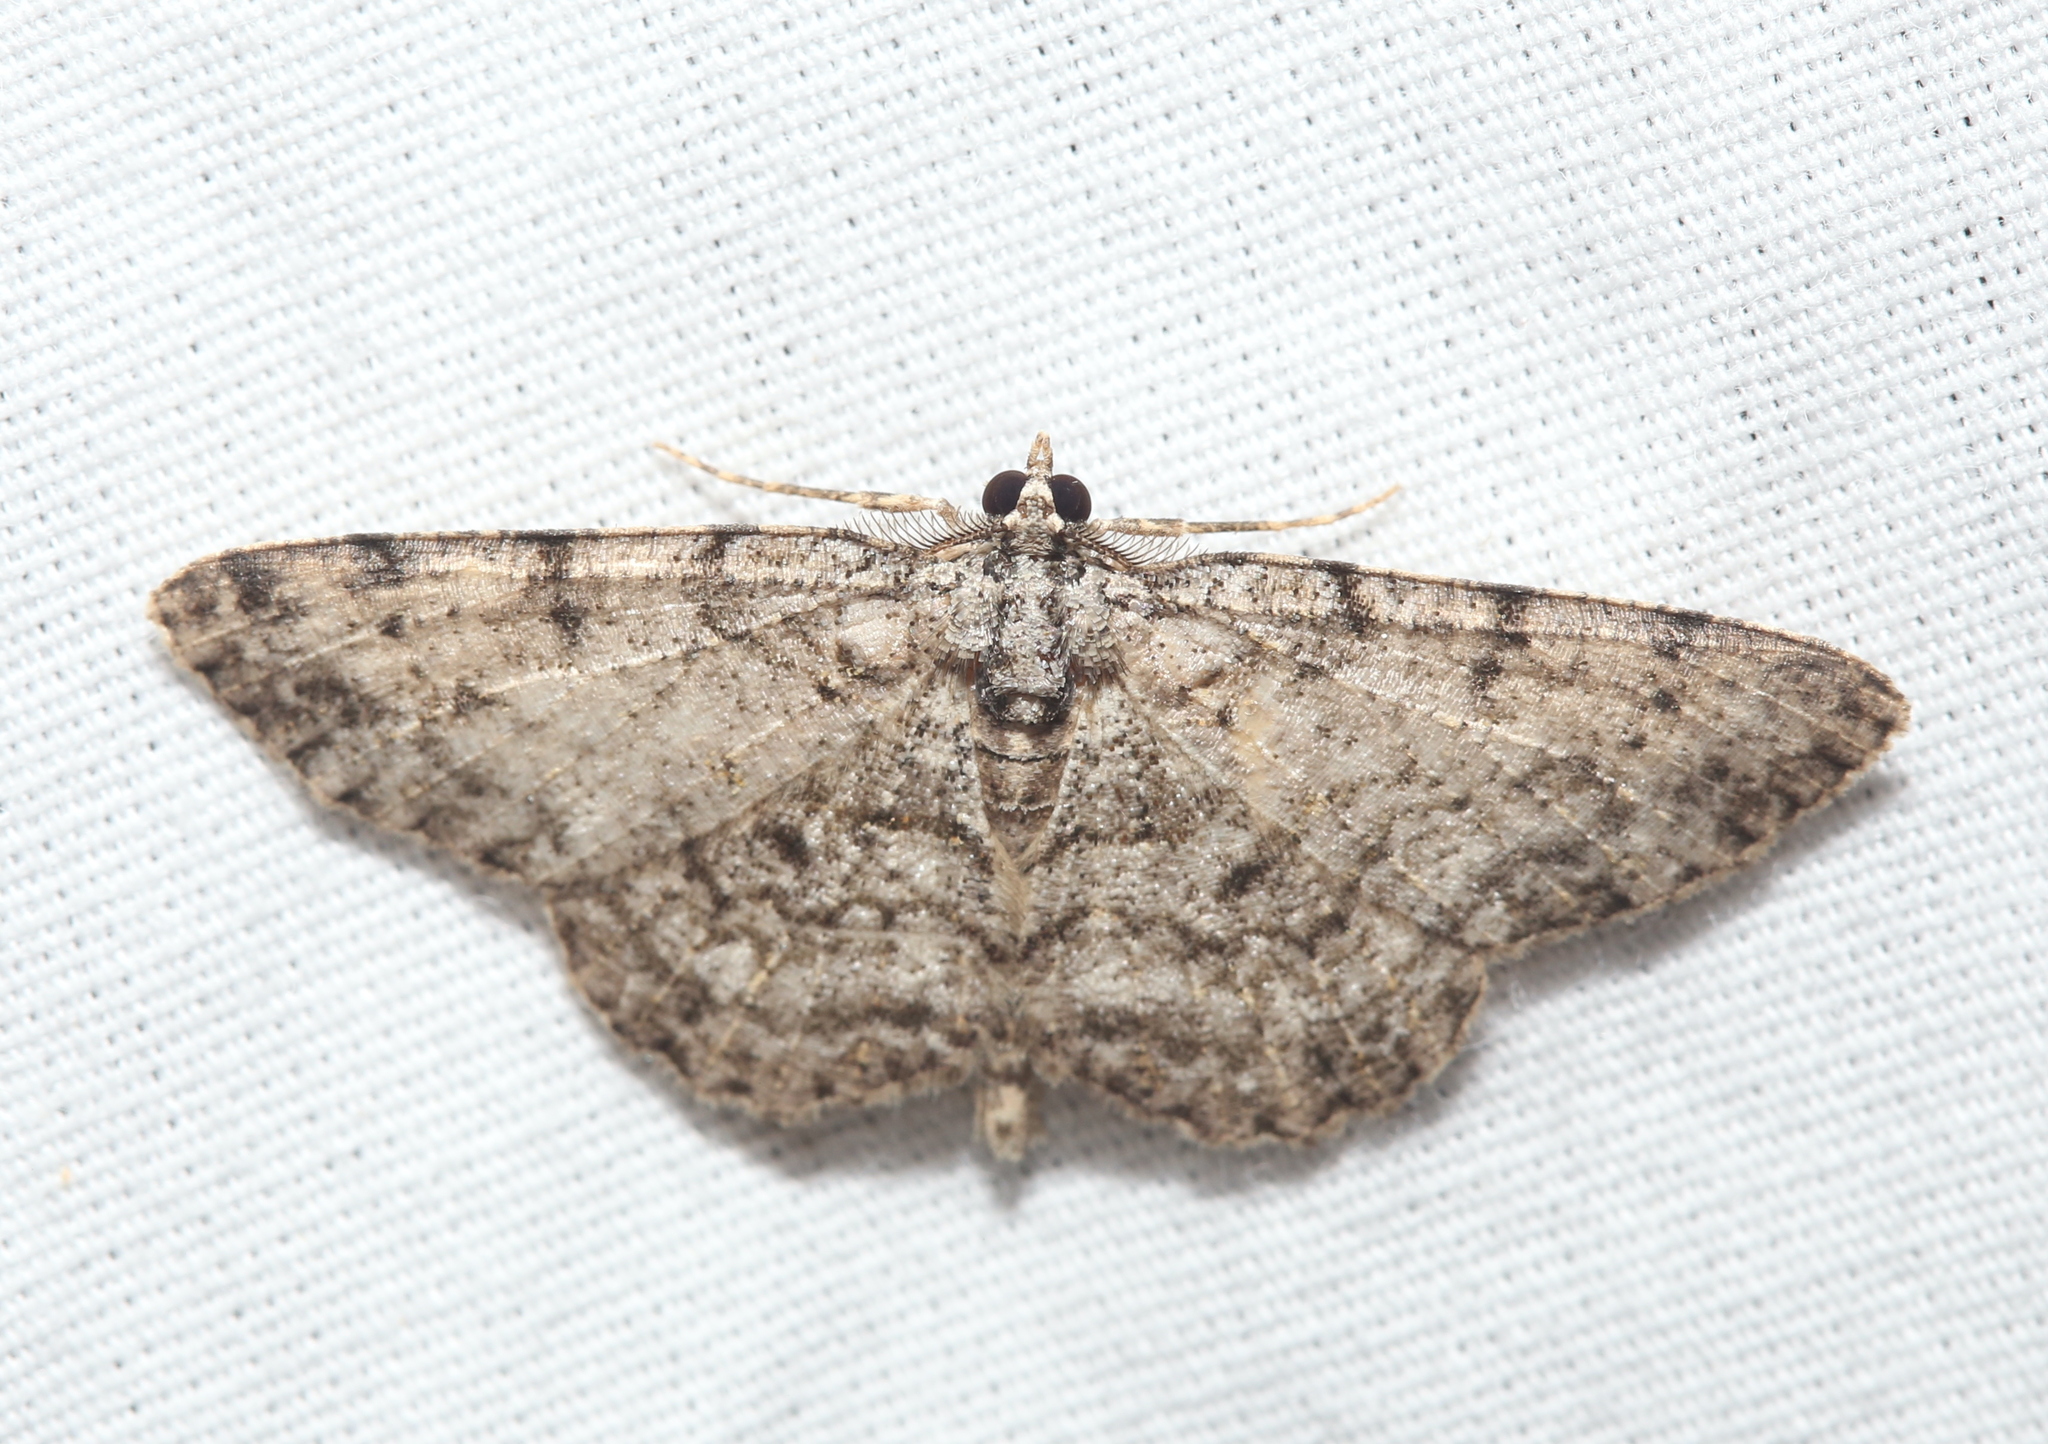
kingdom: Animalia
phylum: Arthropoda
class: Insecta
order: Lepidoptera
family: Geometridae
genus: Protoboarmia
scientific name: Protoboarmia porcelaria
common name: Porcelain gray
